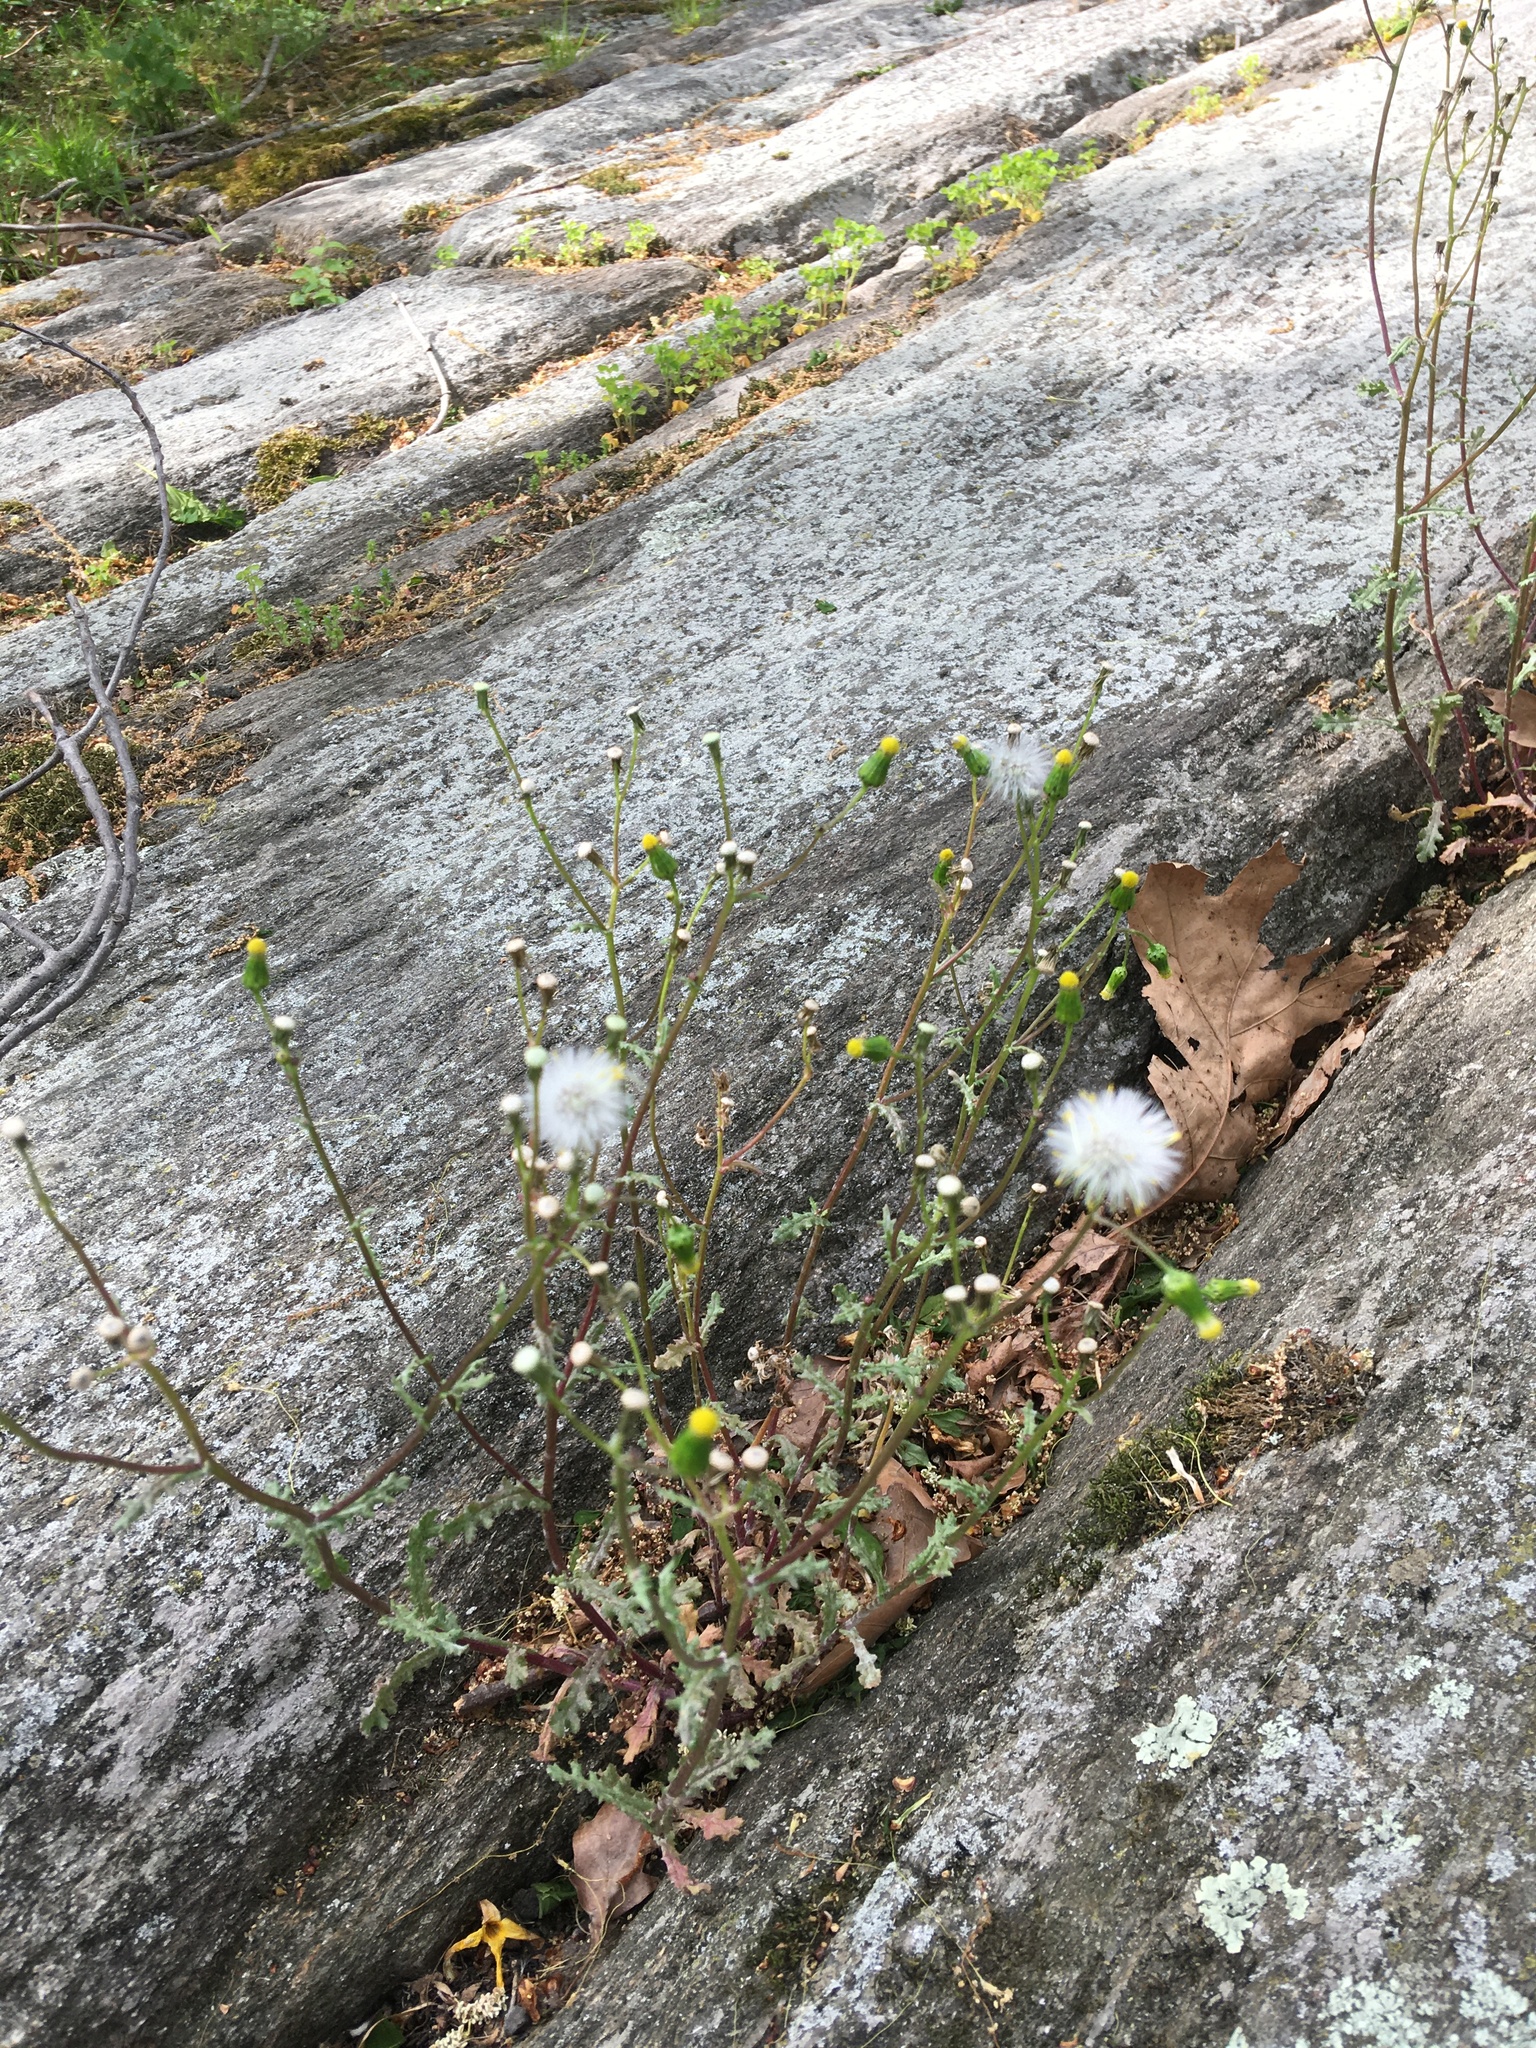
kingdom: Plantae
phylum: Tracheophyta
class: Magnoliopsida
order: Asterales
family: Asteraceae
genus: Senecio
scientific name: Senecio vulgaris
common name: Old-man-in-the-spring
